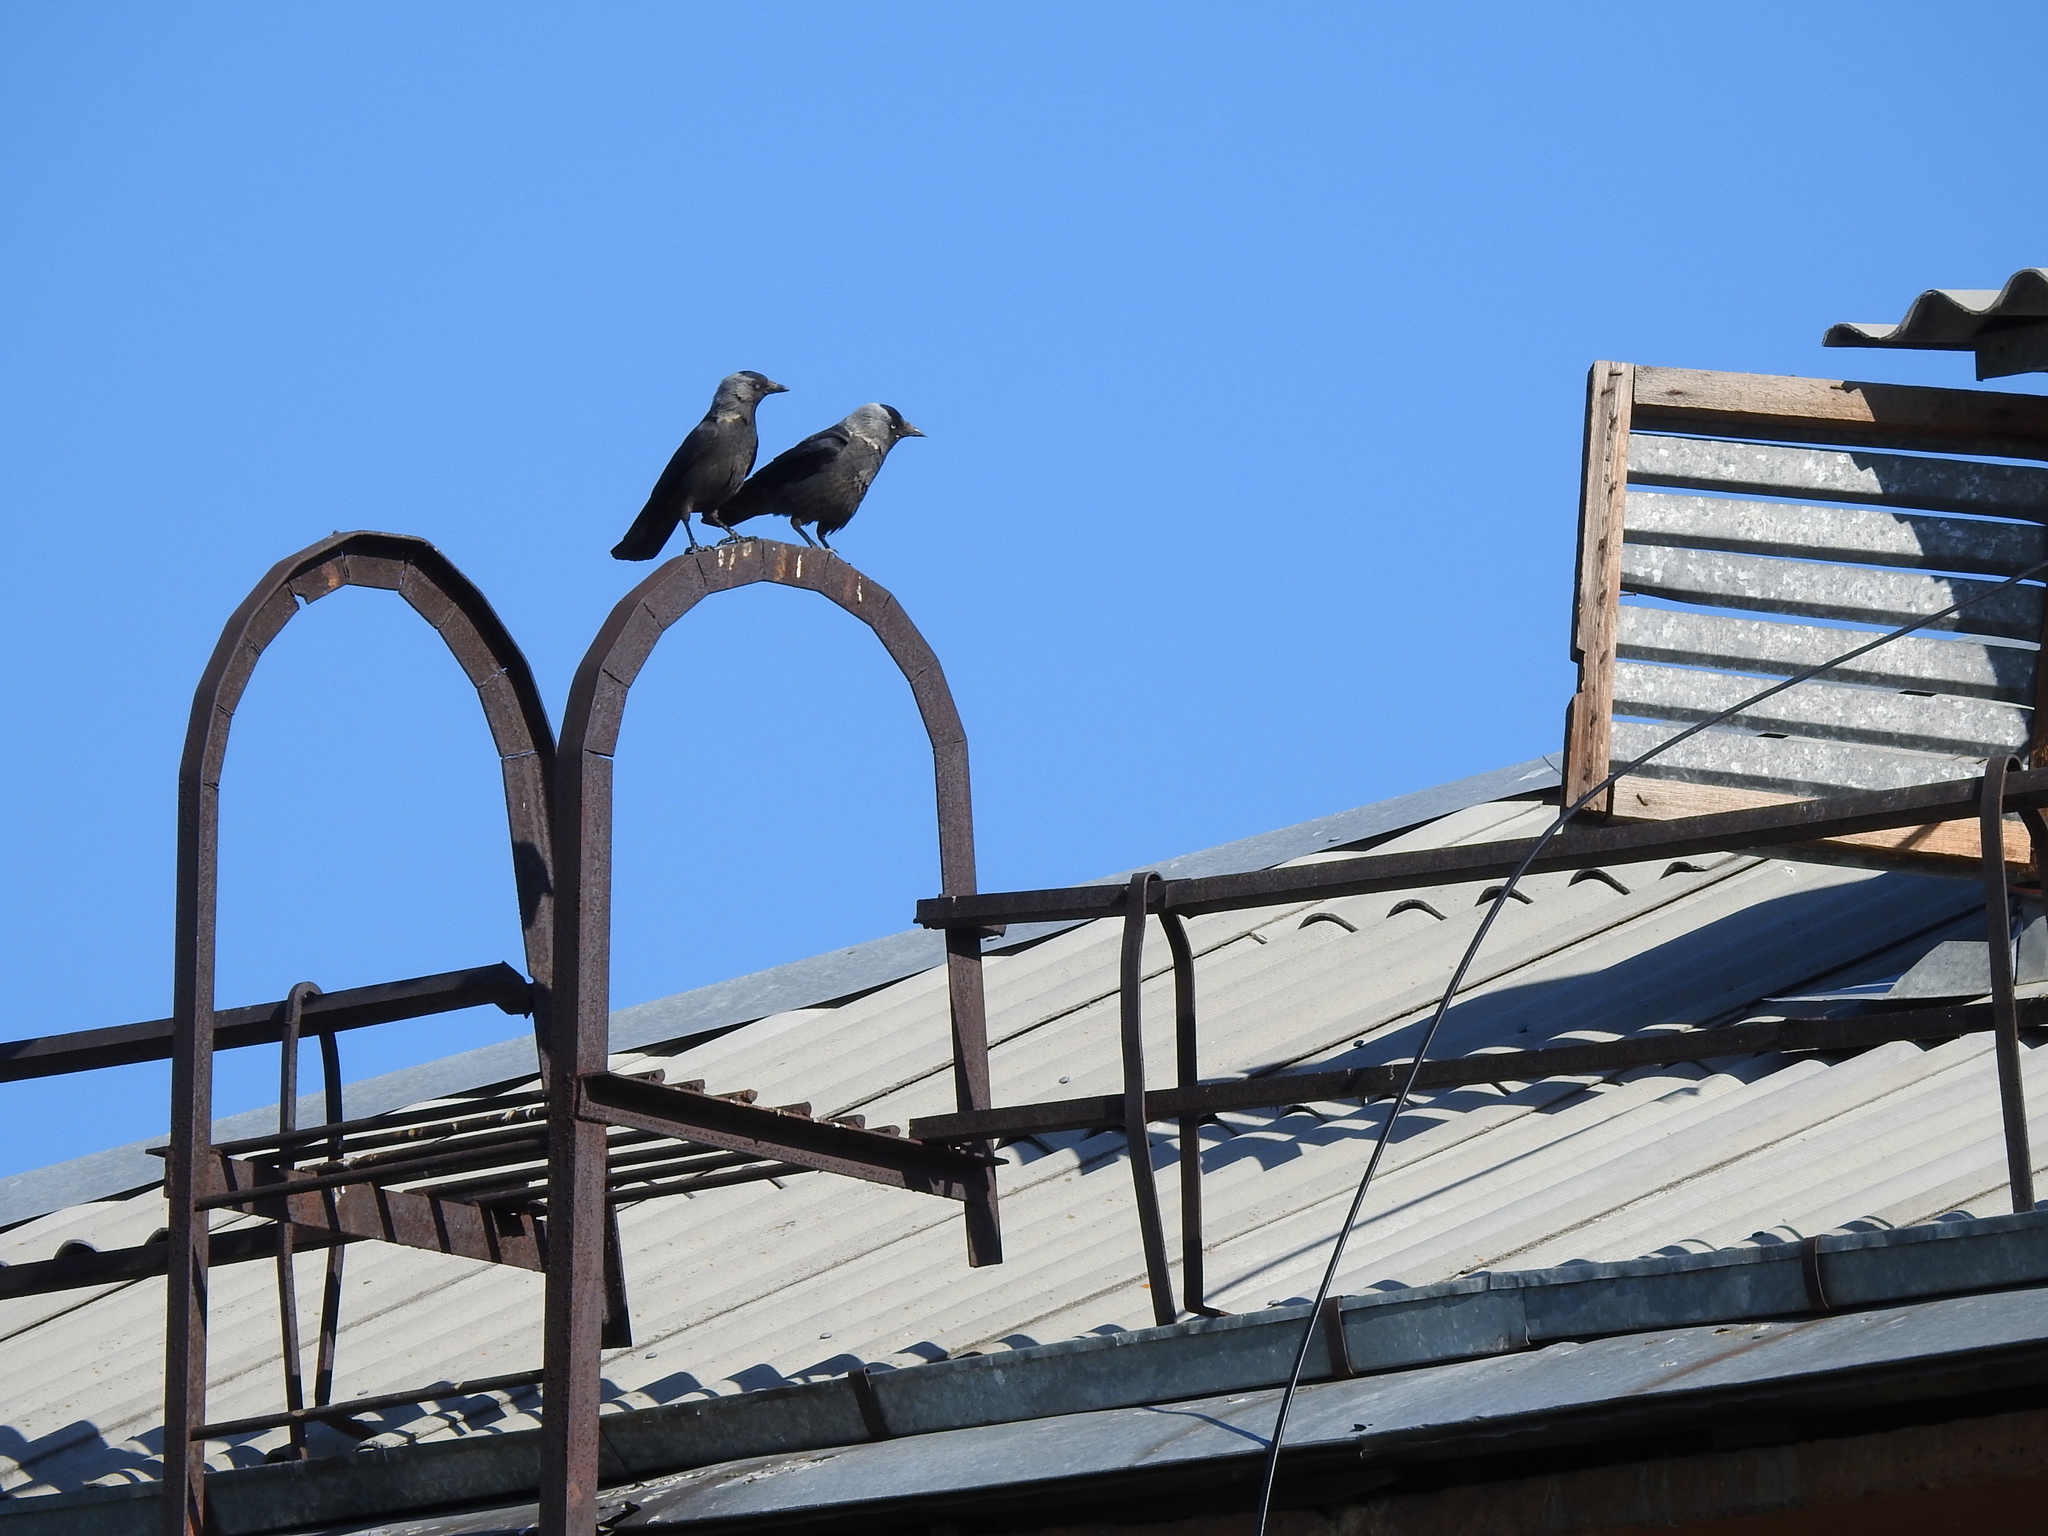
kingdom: Animalia
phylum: Chordata
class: Aves
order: Passeriformes
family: Corvidae
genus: Coloeus
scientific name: Coloeus monedula
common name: Western jackdaw
